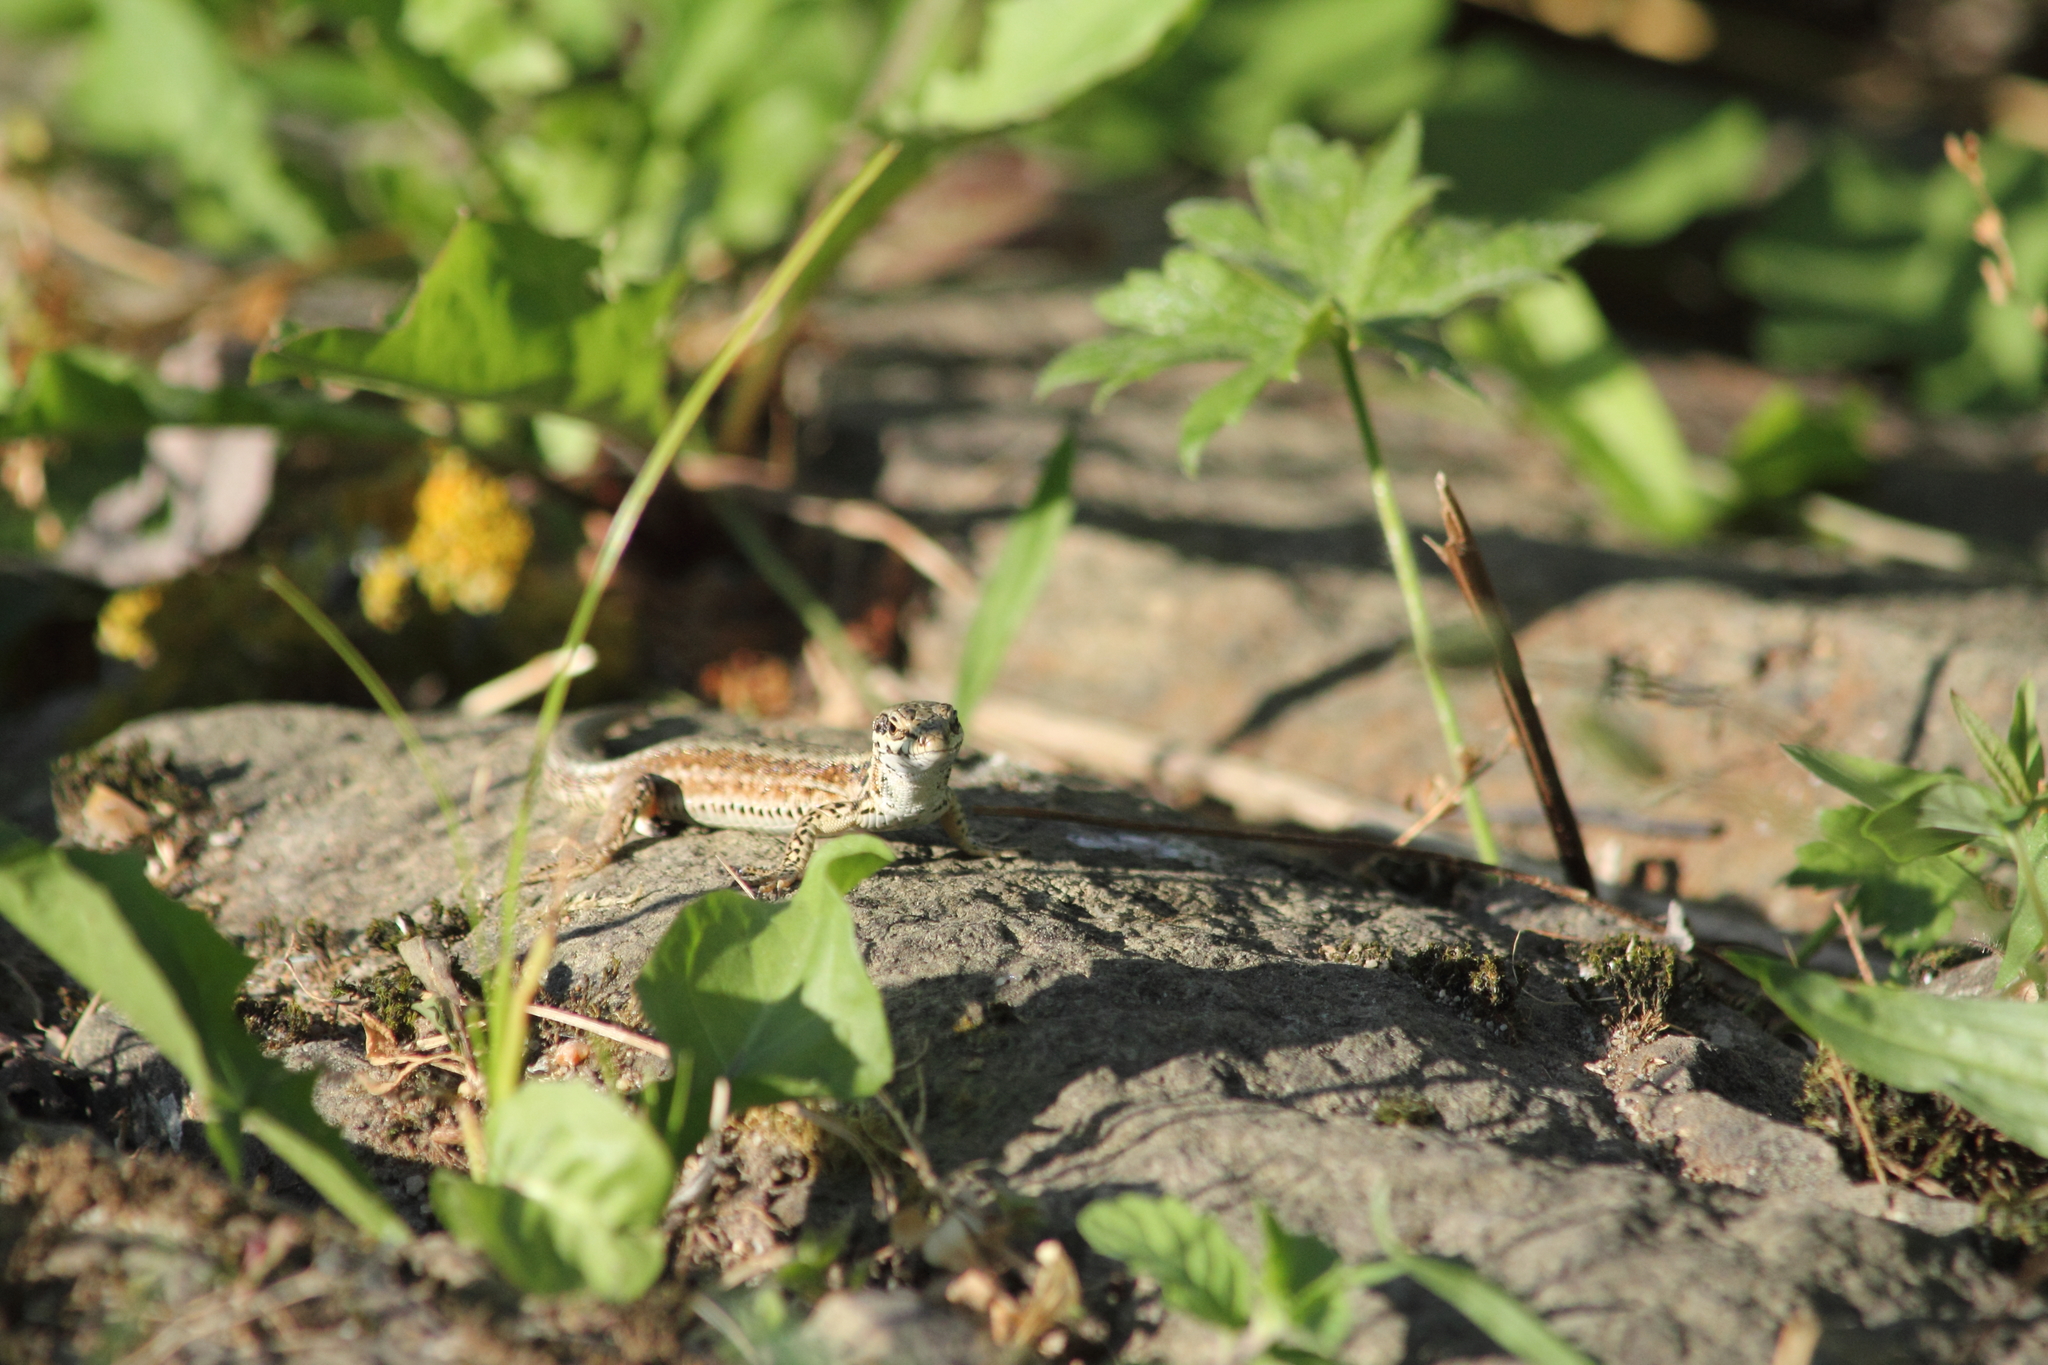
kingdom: Animalia
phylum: Chordata
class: Squamata
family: Lacertidae
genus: Podarcis
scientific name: Podarcis muralis
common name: Common wall lizard
